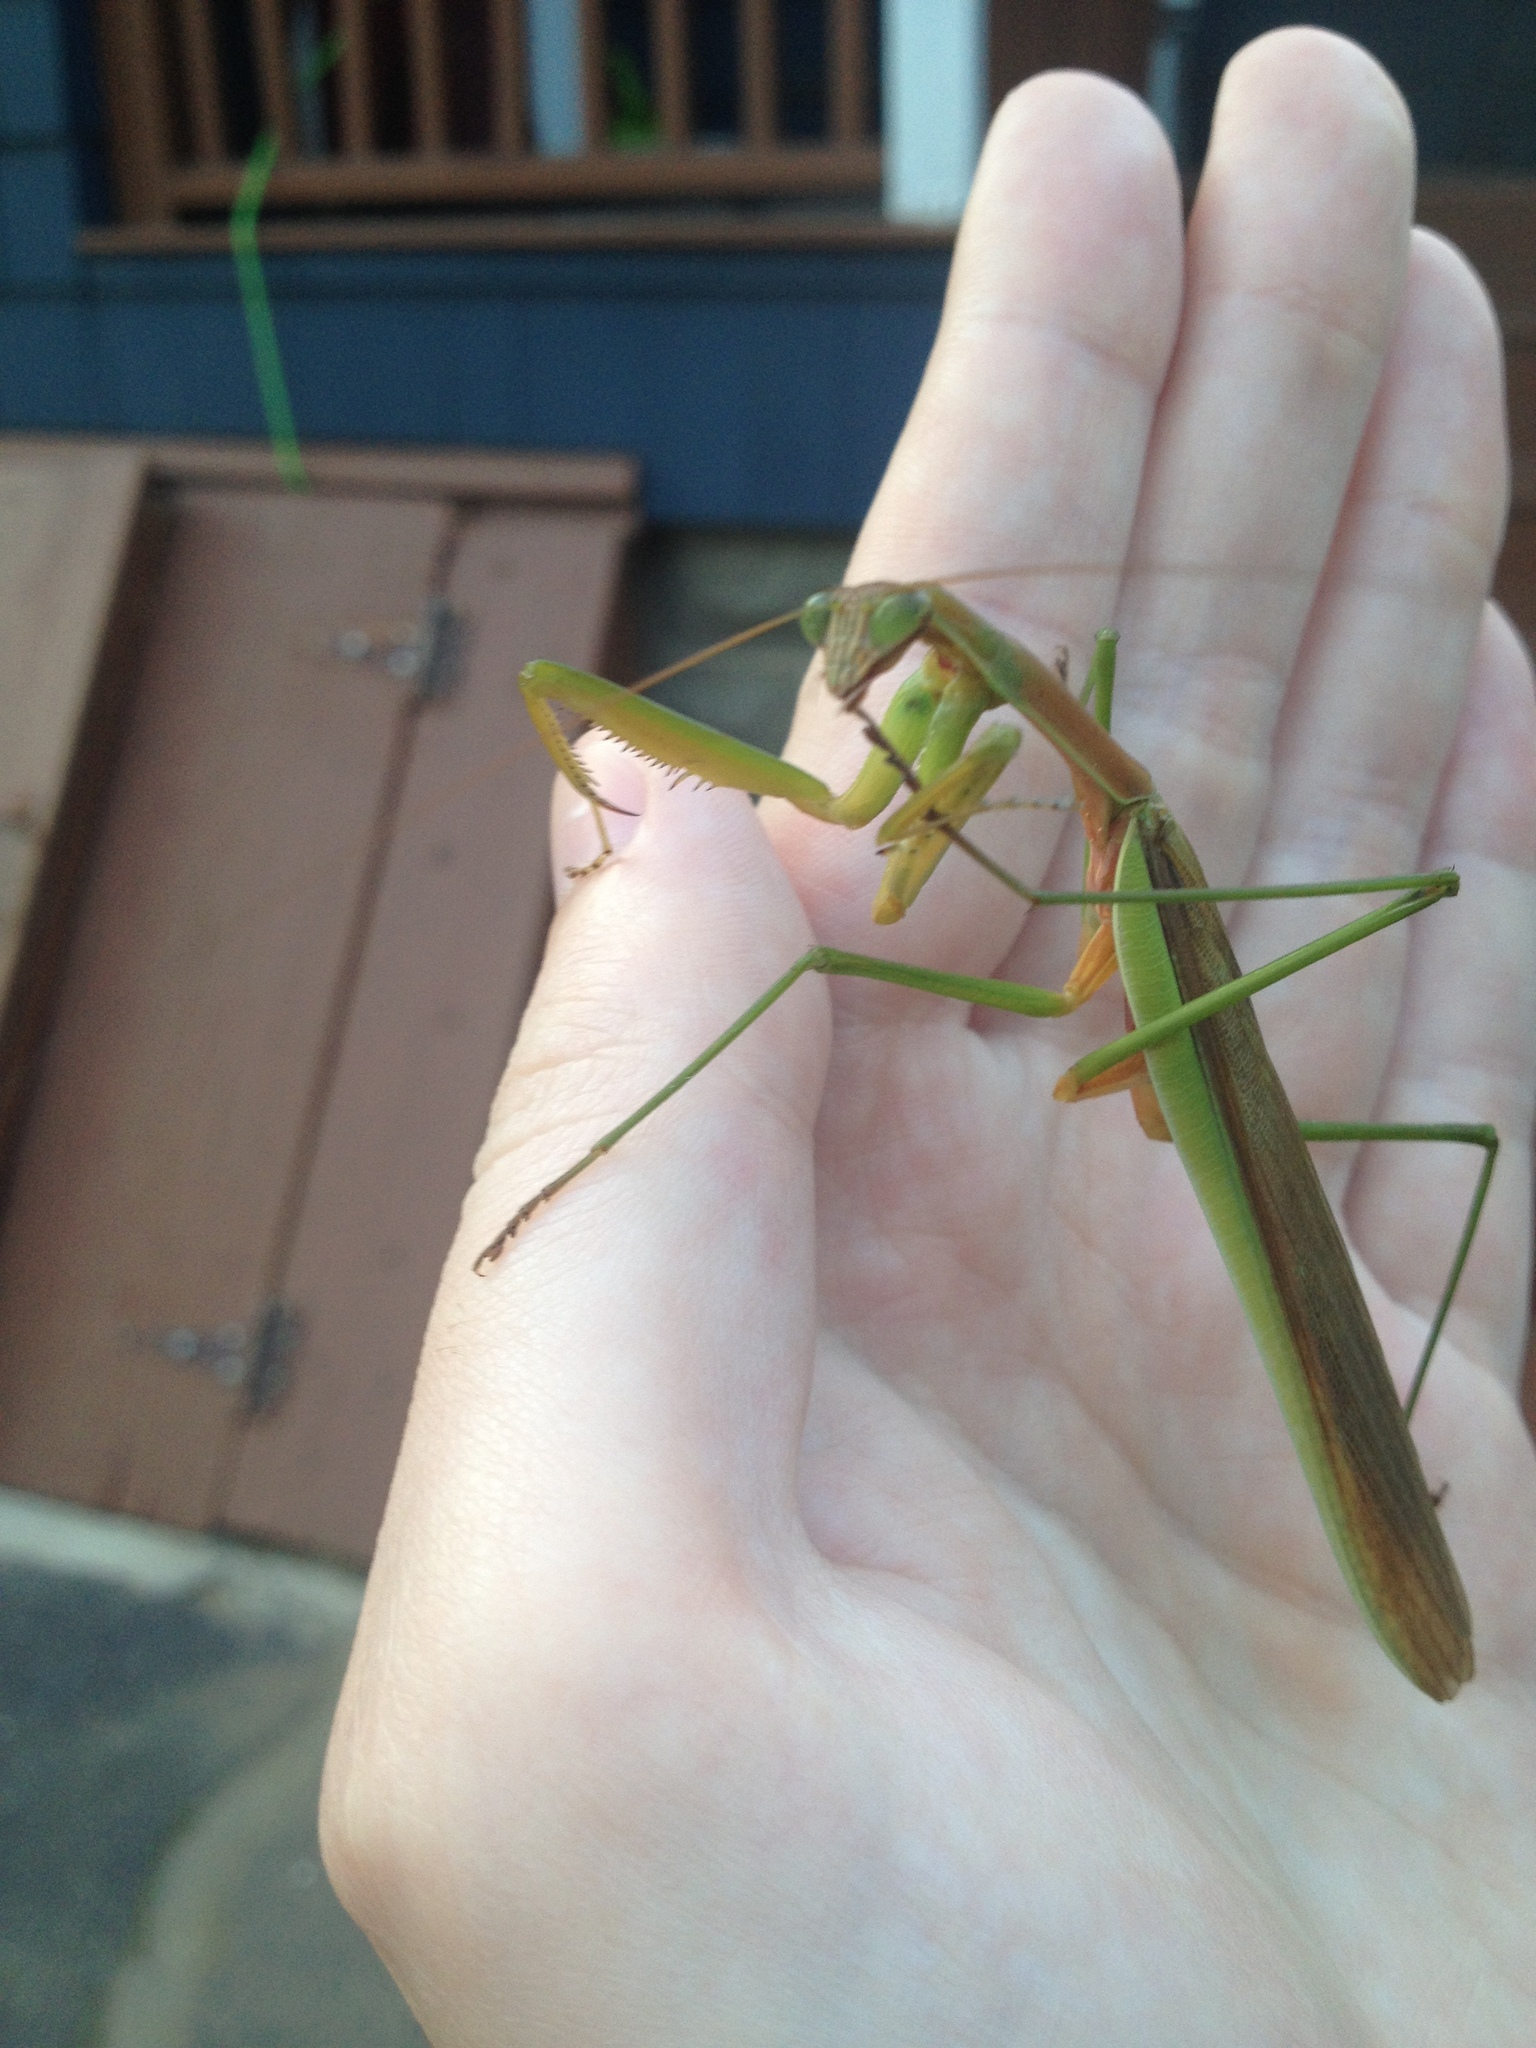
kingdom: Animalia
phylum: Arthropoda
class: Insecta
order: Mantodea
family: Mantidae
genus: Tenodera
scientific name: Tenodera sinensis
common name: Chinese mantis
